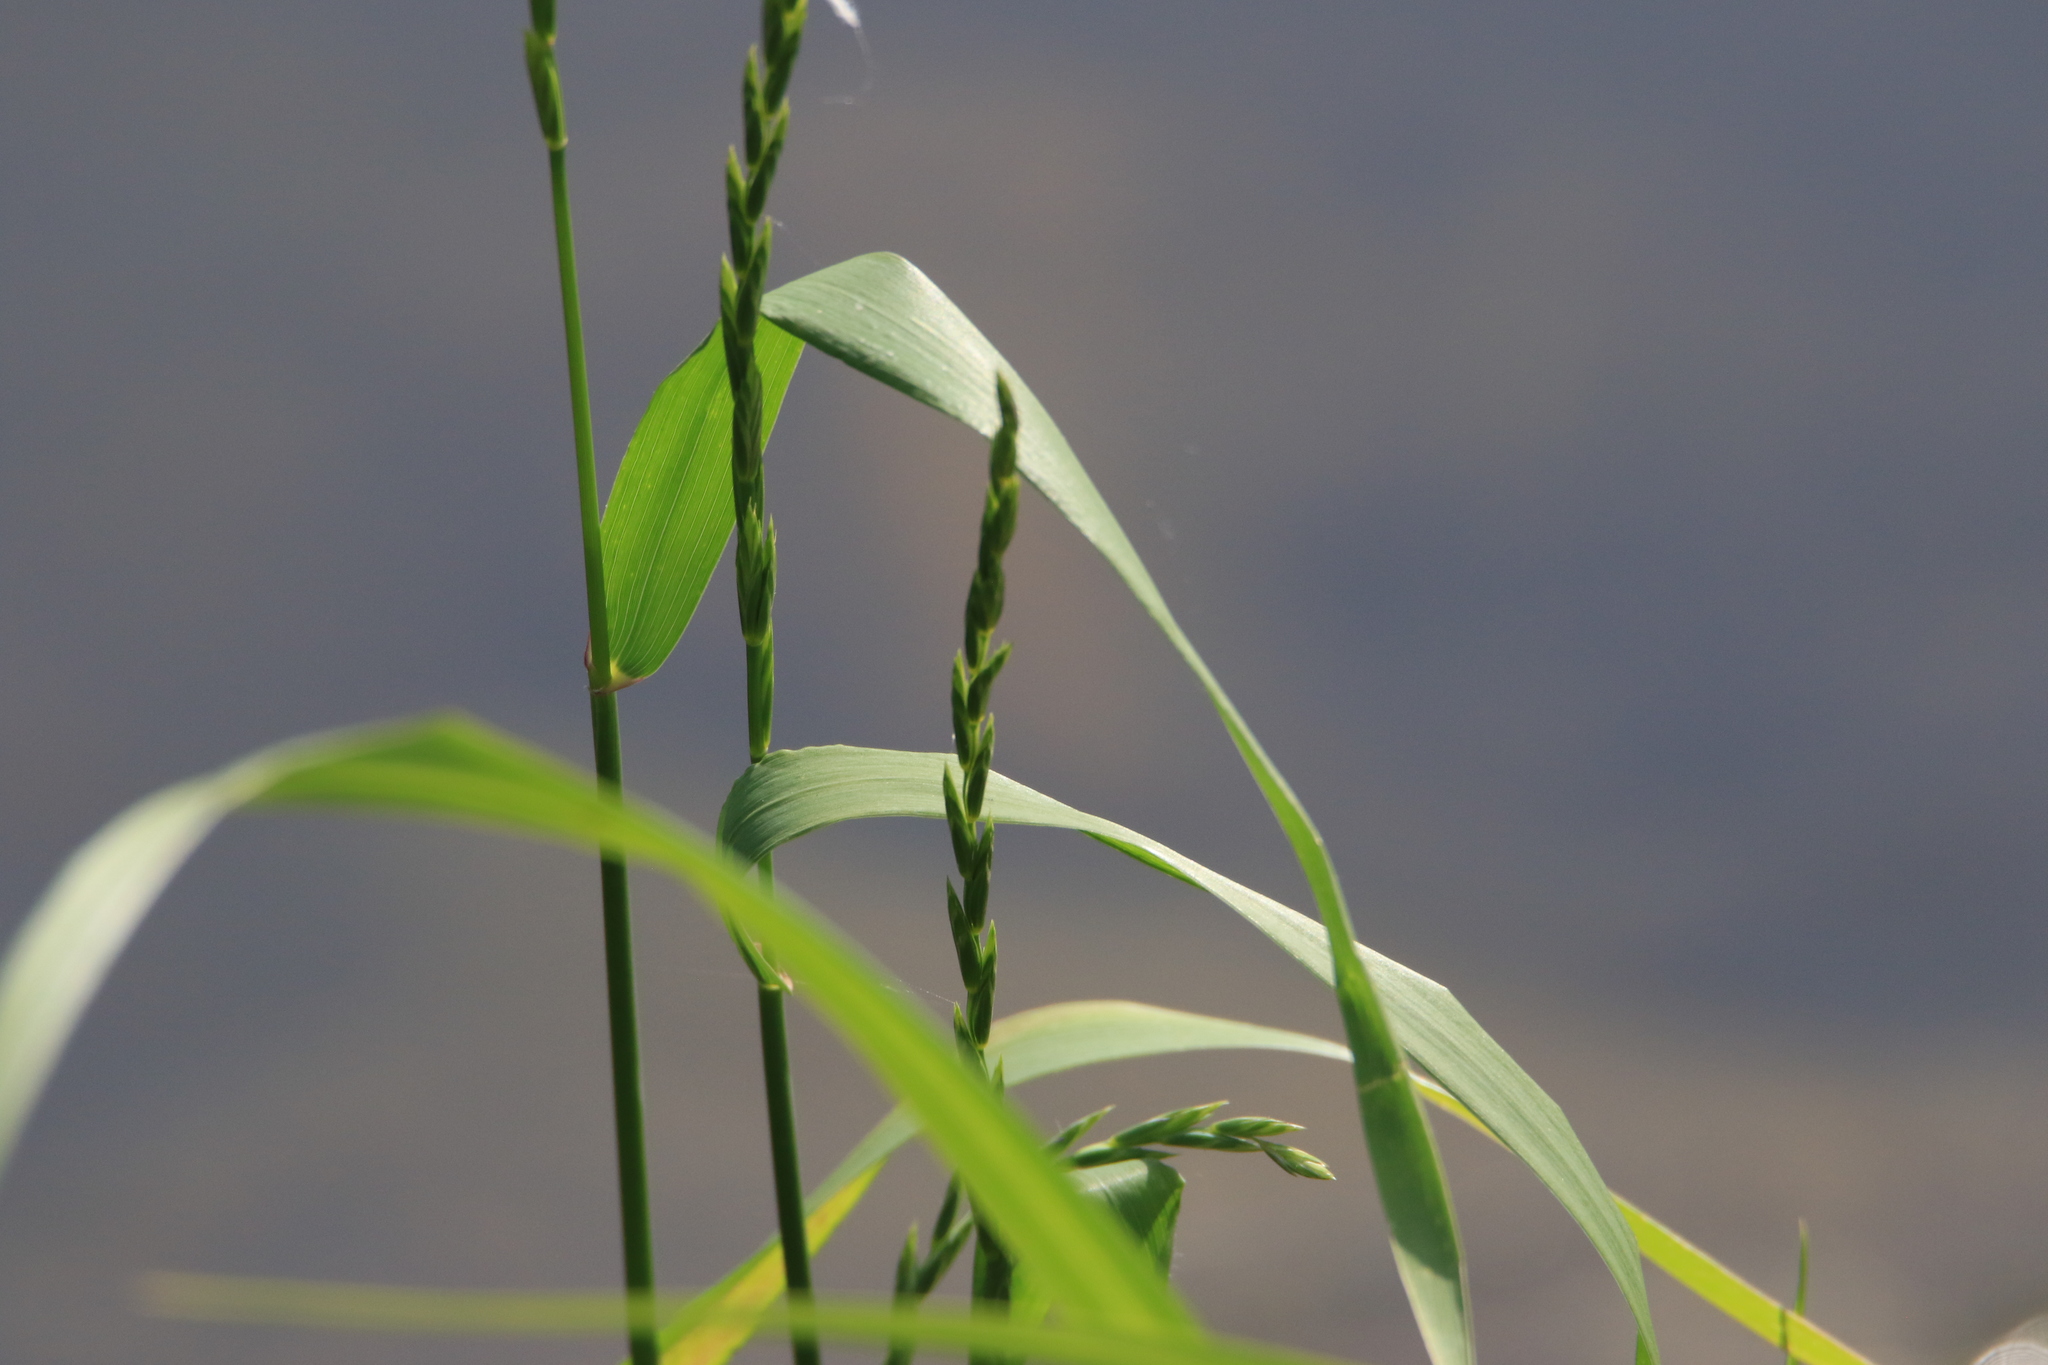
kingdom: Plantae
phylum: Tracheophyta
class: Liliopsida
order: Poales
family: Poaceae
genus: Elymus
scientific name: Elymus repens
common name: Quackgrass
